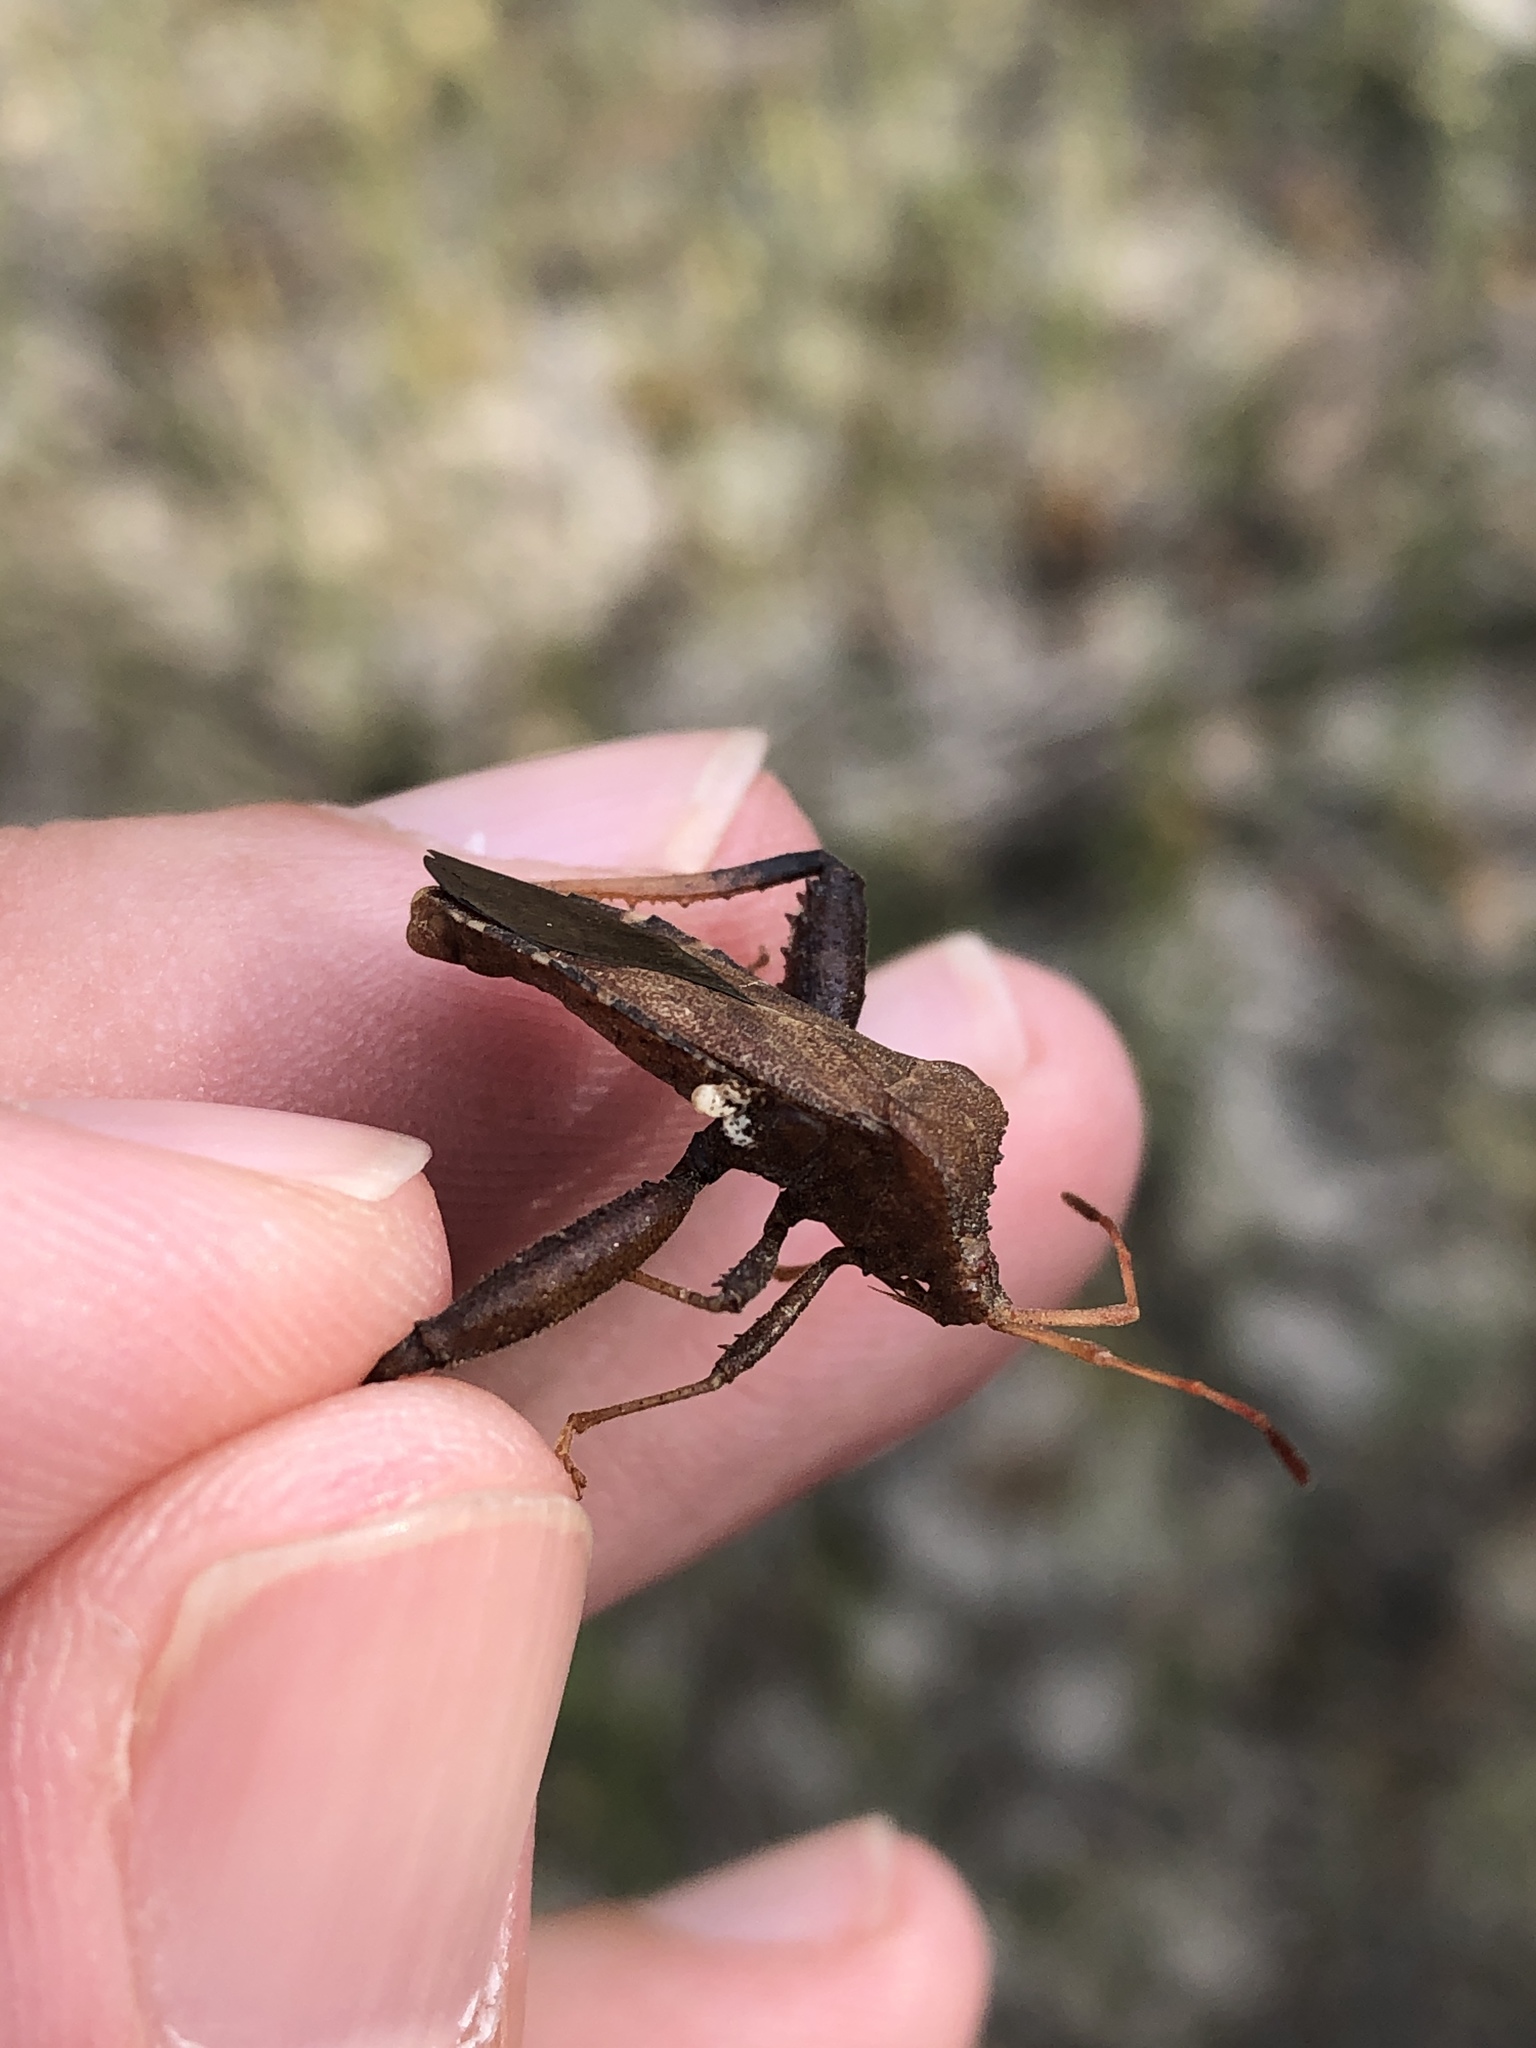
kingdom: Animalia
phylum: Arthropoda
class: Insecta
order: Hemiptera
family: Coreidae
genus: Euthochtha
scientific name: Euthochtha galeator
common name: Helmeted squash bug
